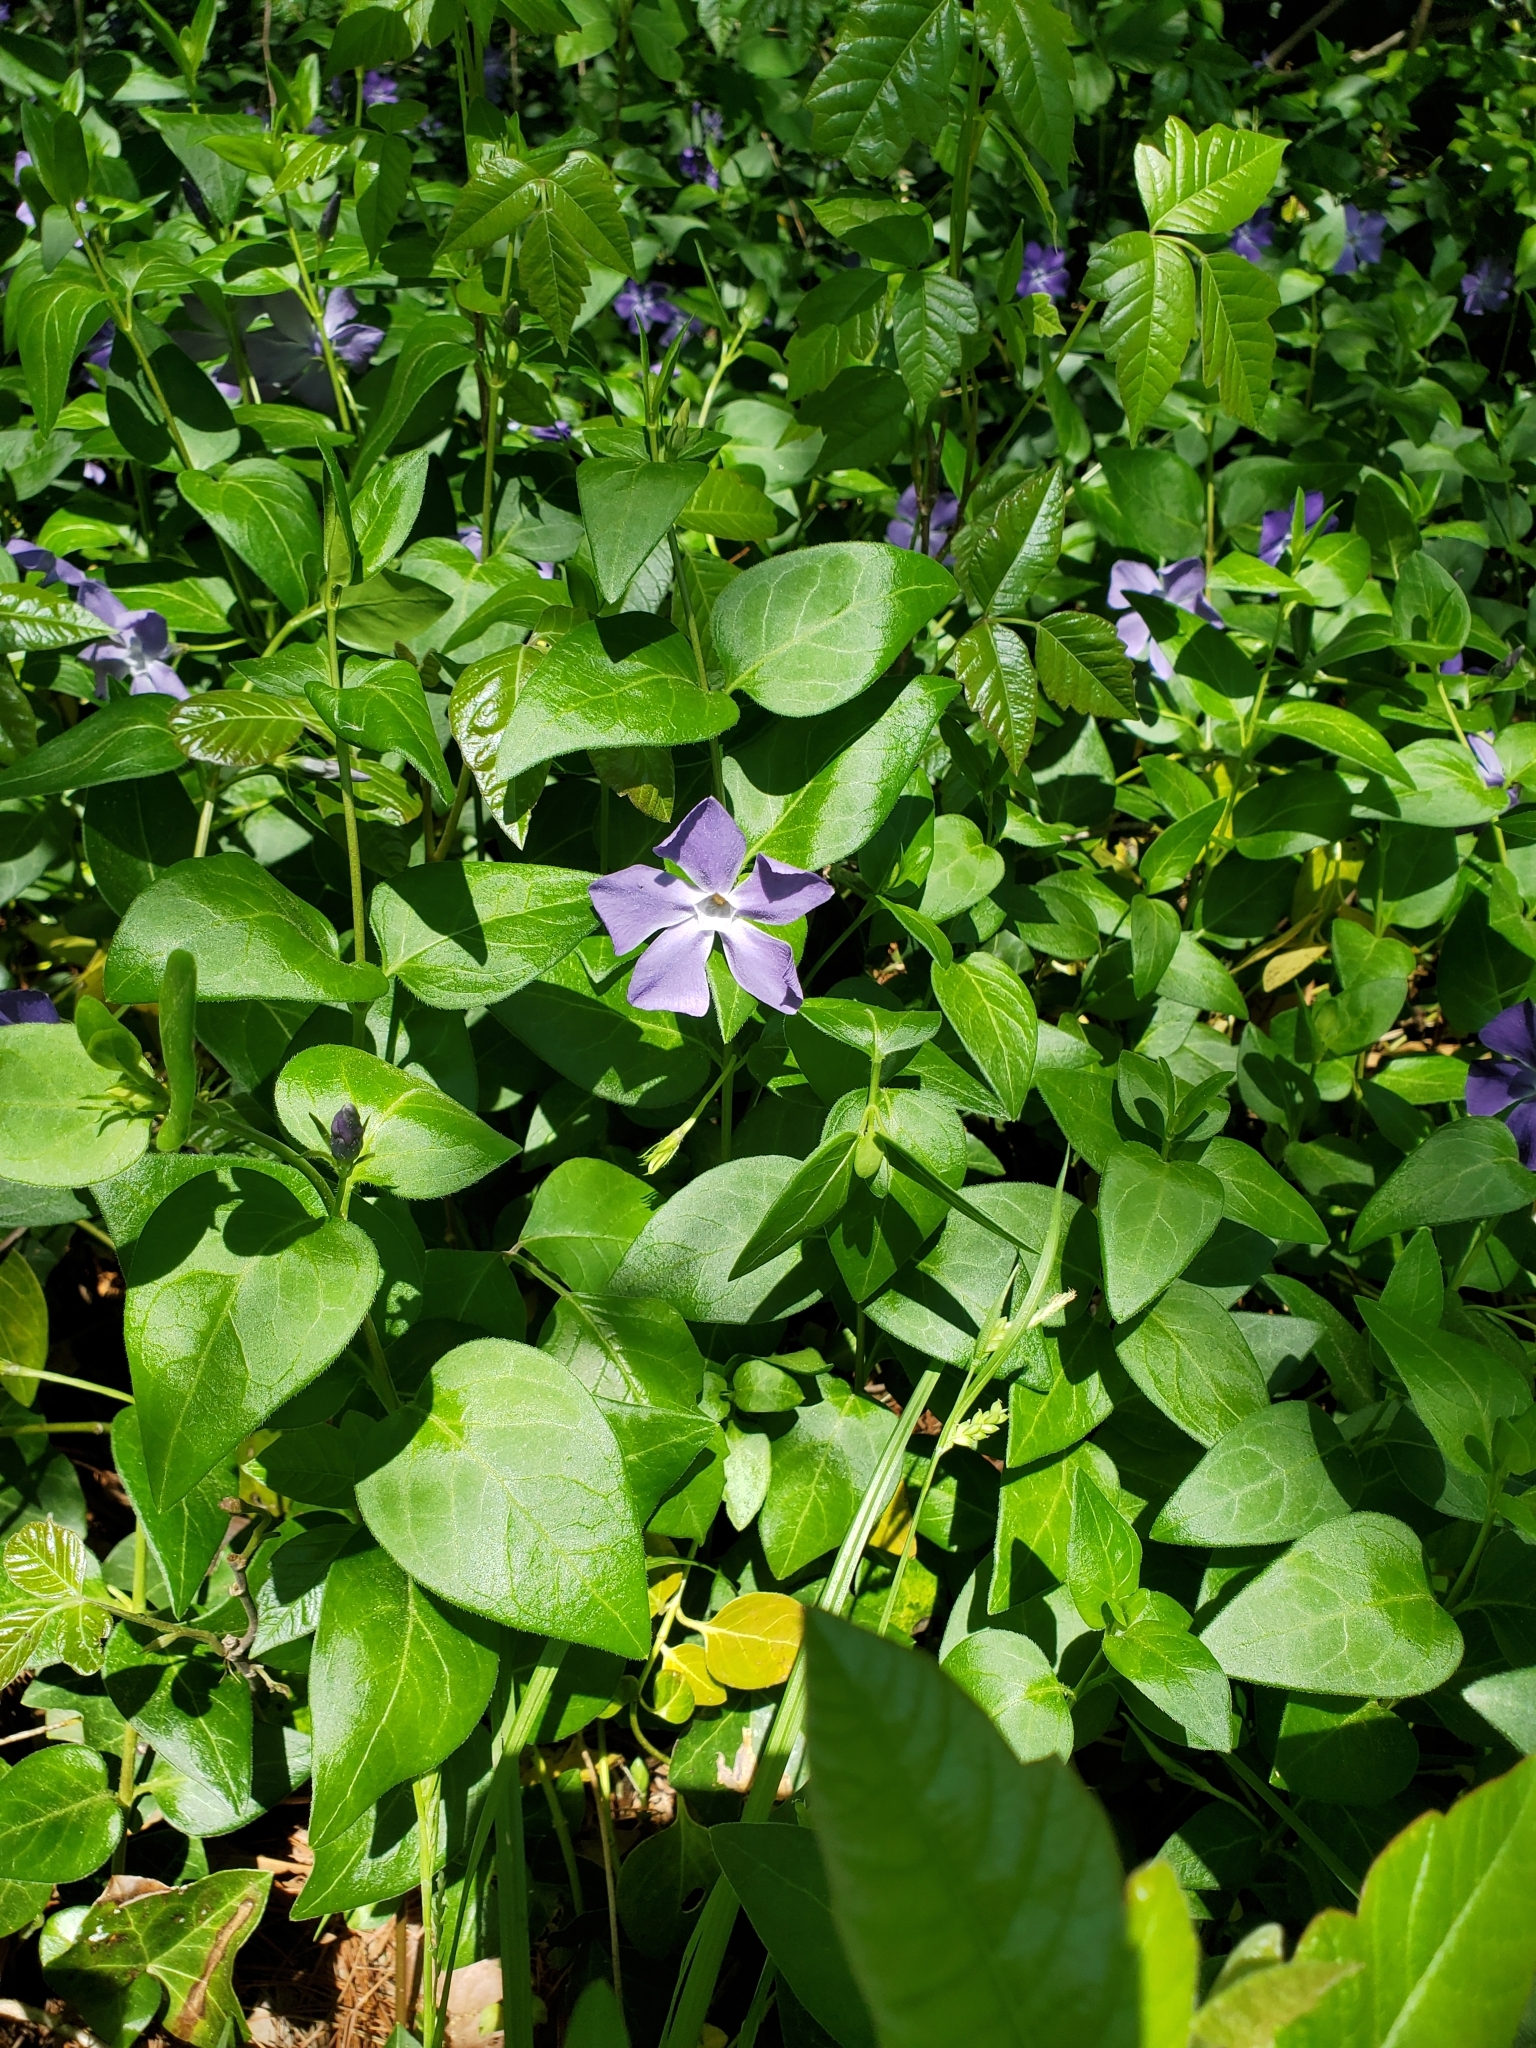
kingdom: Plantae
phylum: Tracheophyta
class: Magnoliopsida
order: Gentianales
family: Apocynaceae
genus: Vinca
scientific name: Vinca major
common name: Greater periwinkle
